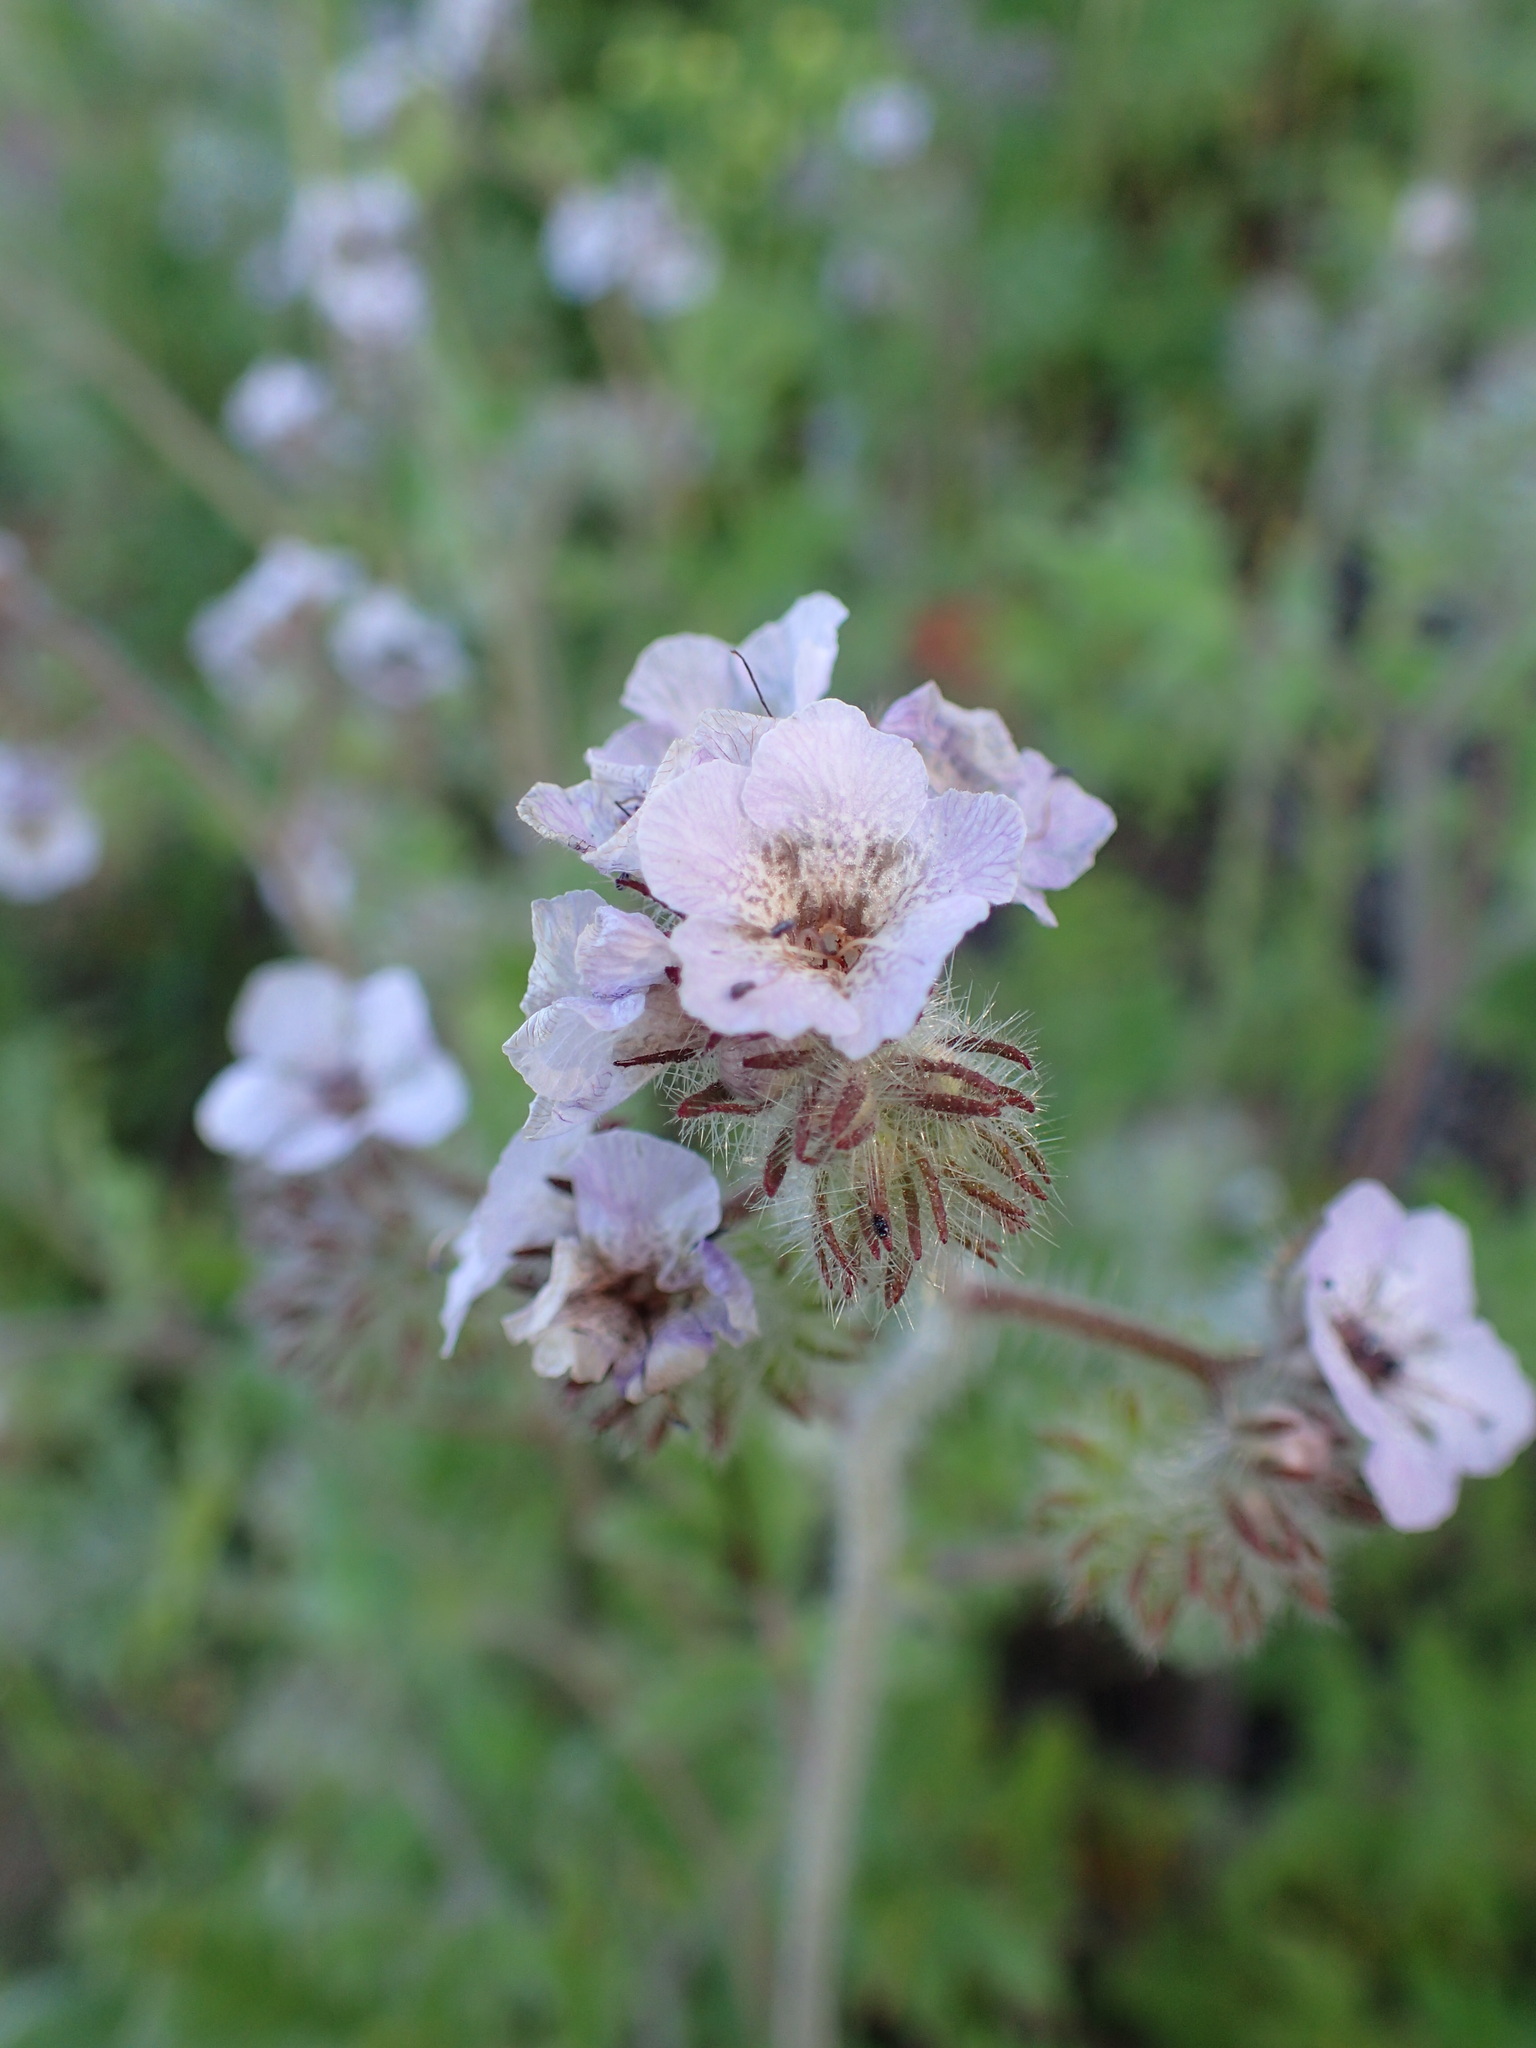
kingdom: Plantae
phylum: Tracheophyta
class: Magnoliopsida
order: Boraginales
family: Hydrophyllaceae
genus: Phacelia
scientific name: Phacelia cicutaria
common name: Caterpillar phacelia
